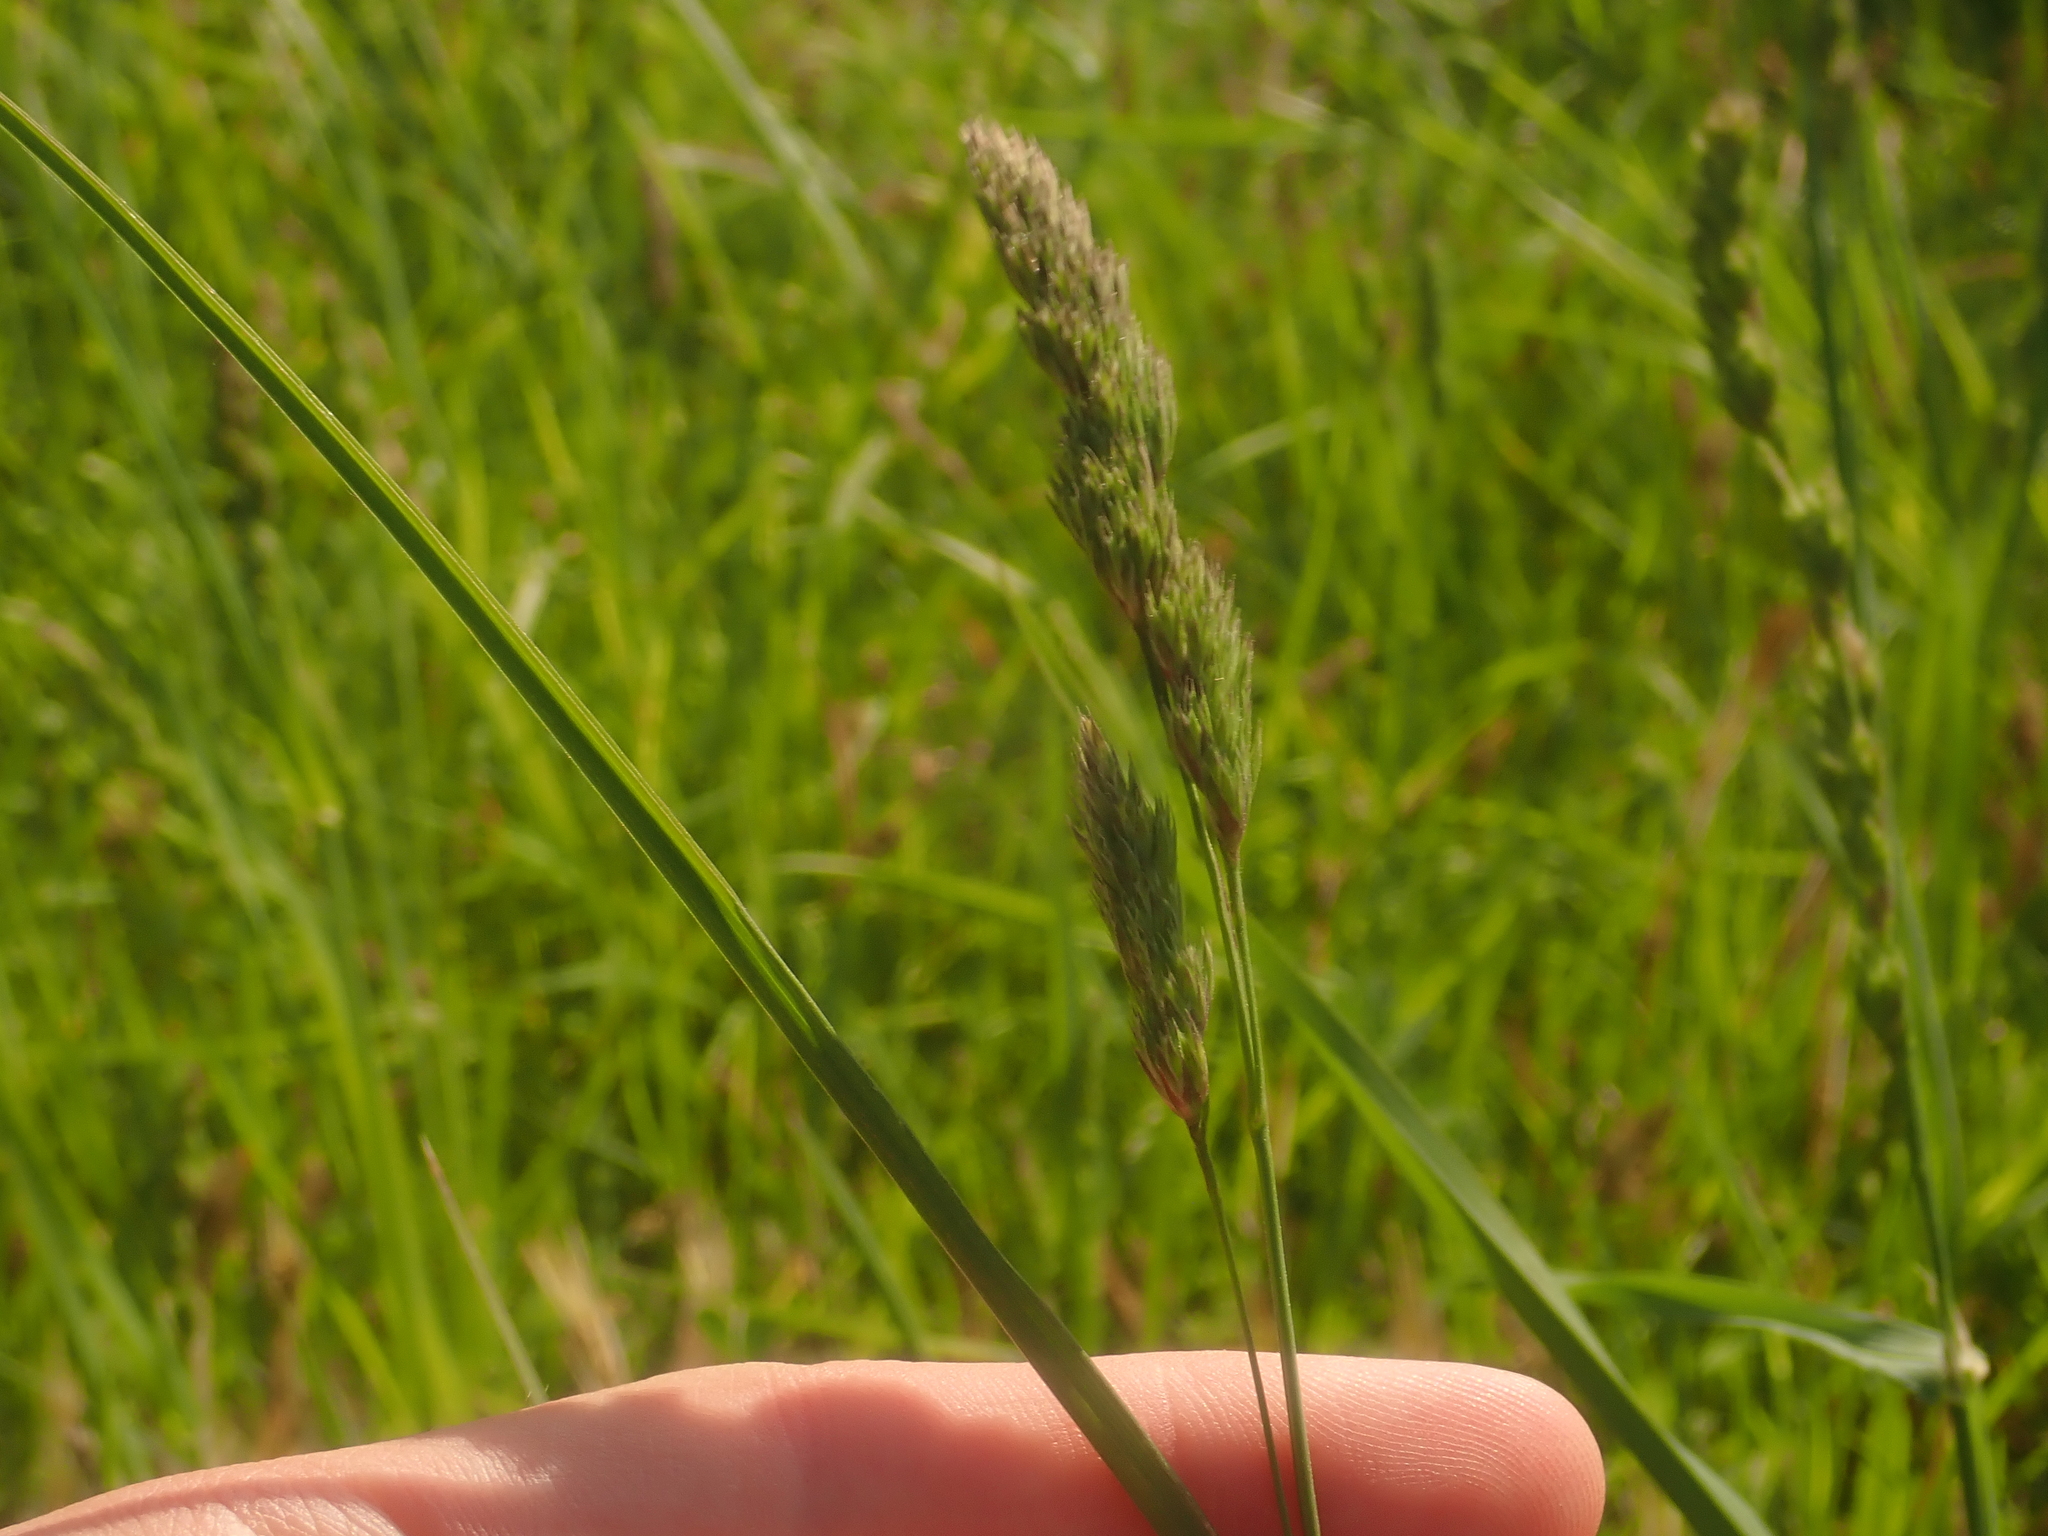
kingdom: Plantae
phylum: Tracheophyta
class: Liliopsida
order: Poales
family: Poaceae
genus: Dactylis
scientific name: Dactylis glomerata
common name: Orchardgrass
